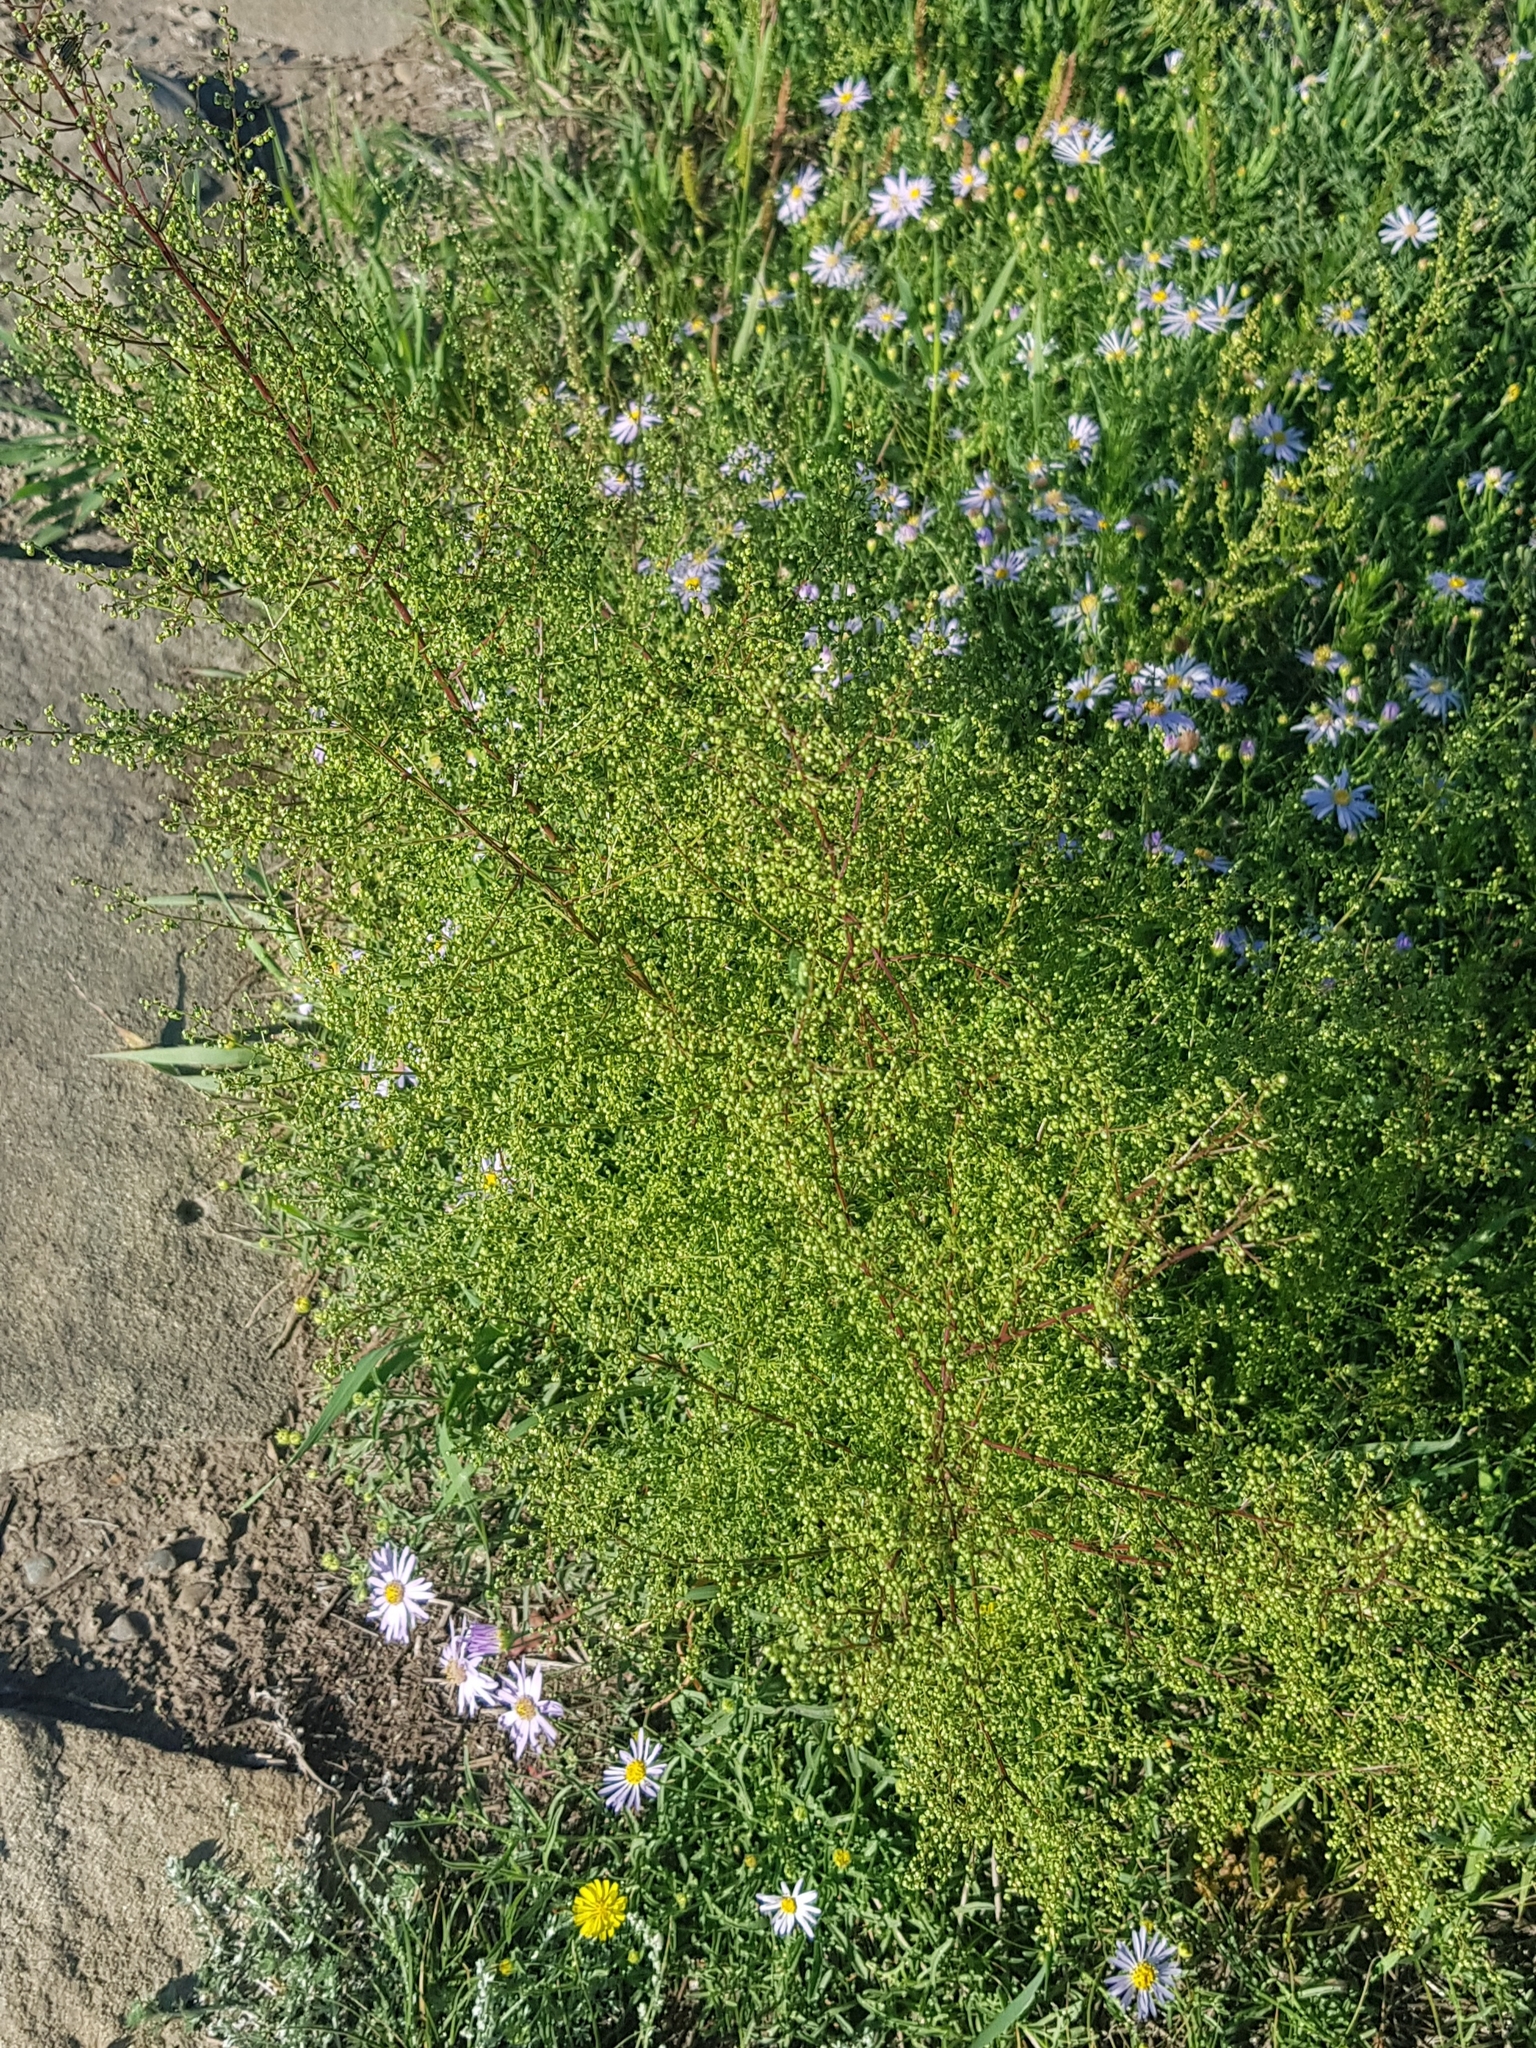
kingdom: Plantae
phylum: Tracheophyta
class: Magnoliopsida
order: Asterales
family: Asteraceae
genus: Artemisia
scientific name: Artemisia scoparia
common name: Redstem wormwood
